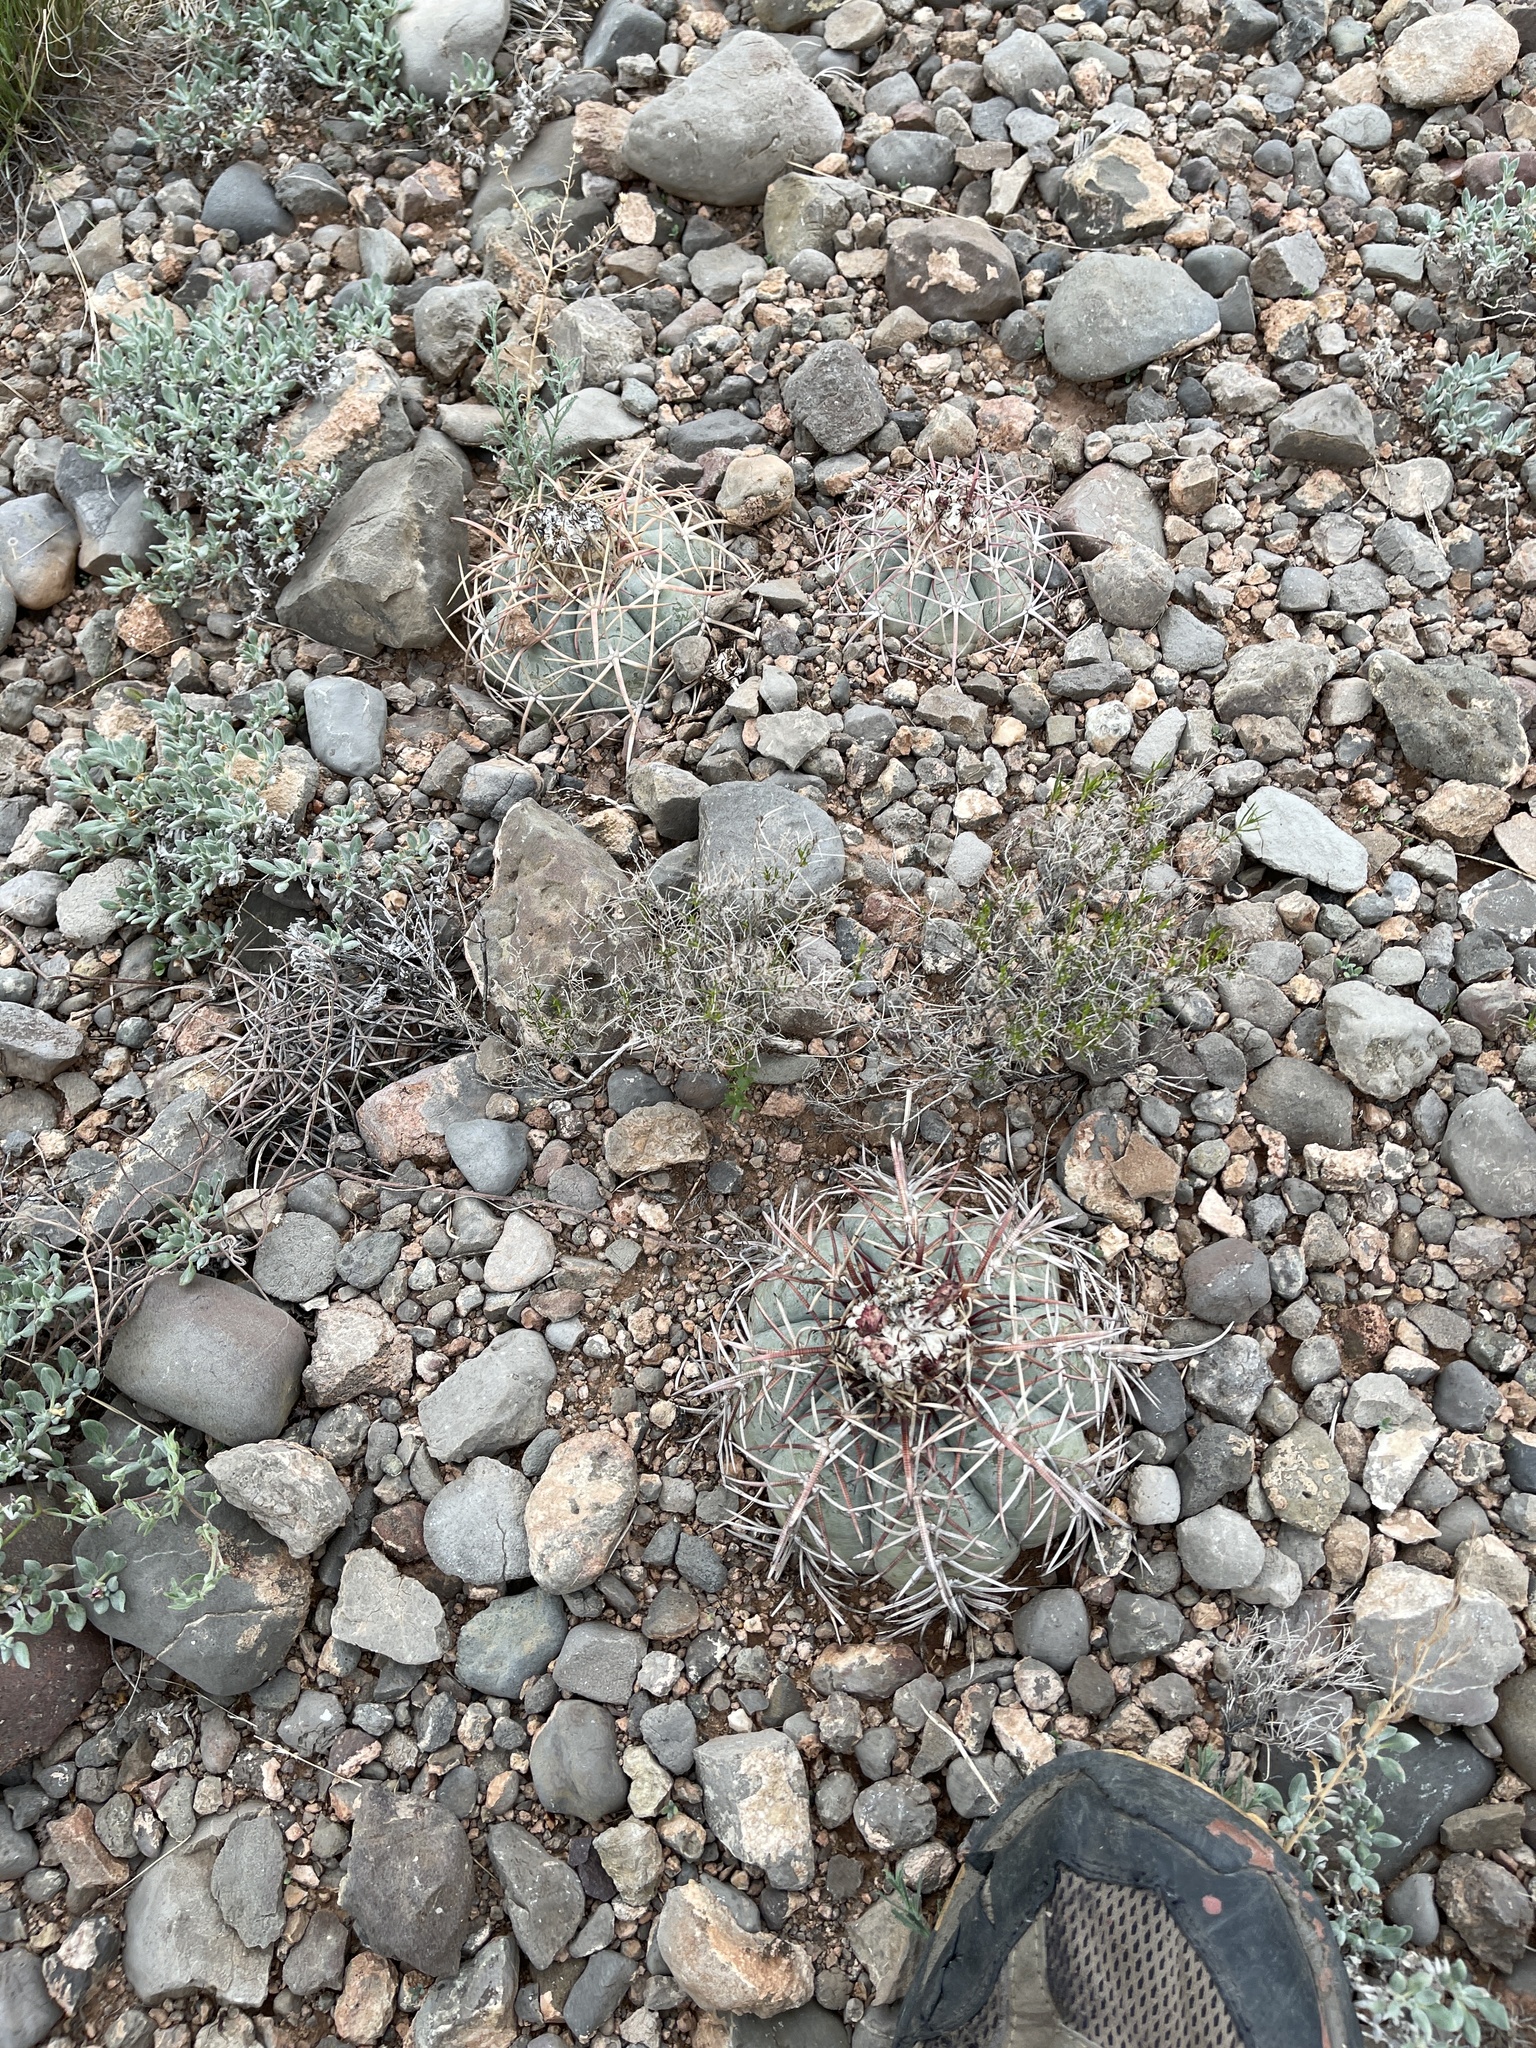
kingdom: Plantae
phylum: Tracheophyta
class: Magnoliopsida
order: Caryophyllales
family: Cactaceae
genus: Echinocactus
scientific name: Echinocactus horizonthalonius
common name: Devilshead
